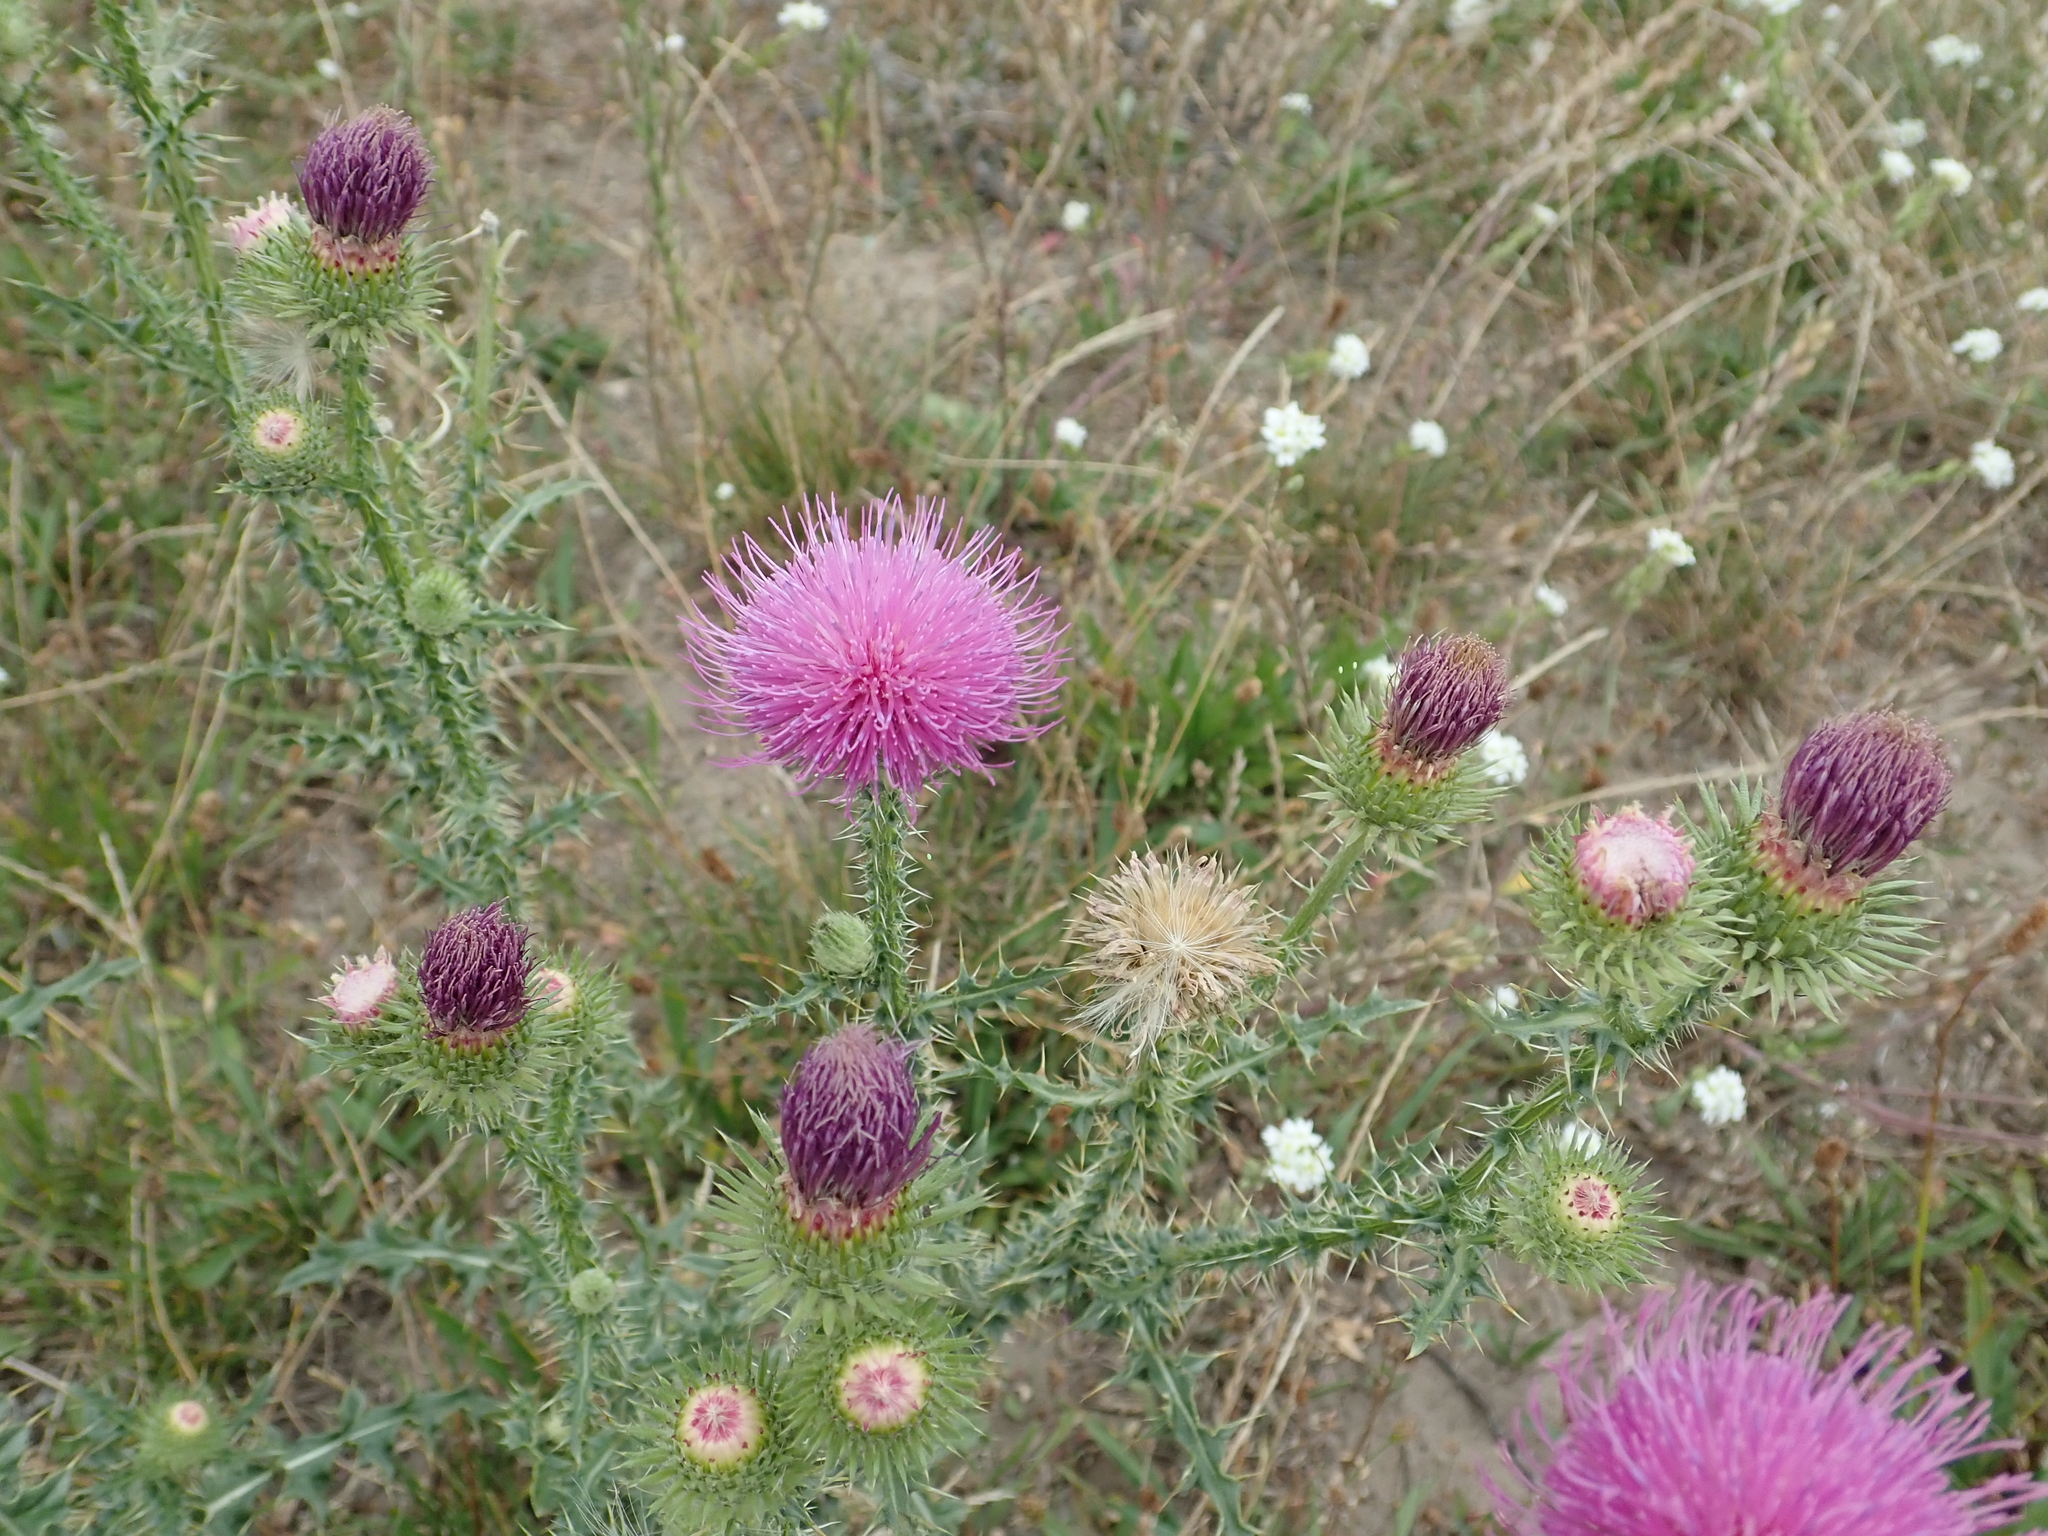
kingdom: Plantae
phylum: Tracheophyta
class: Magnoliopsida
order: Asterales
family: Asteraceae
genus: Carduus
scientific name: Carduus acanthoides
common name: Plumeless thistle
